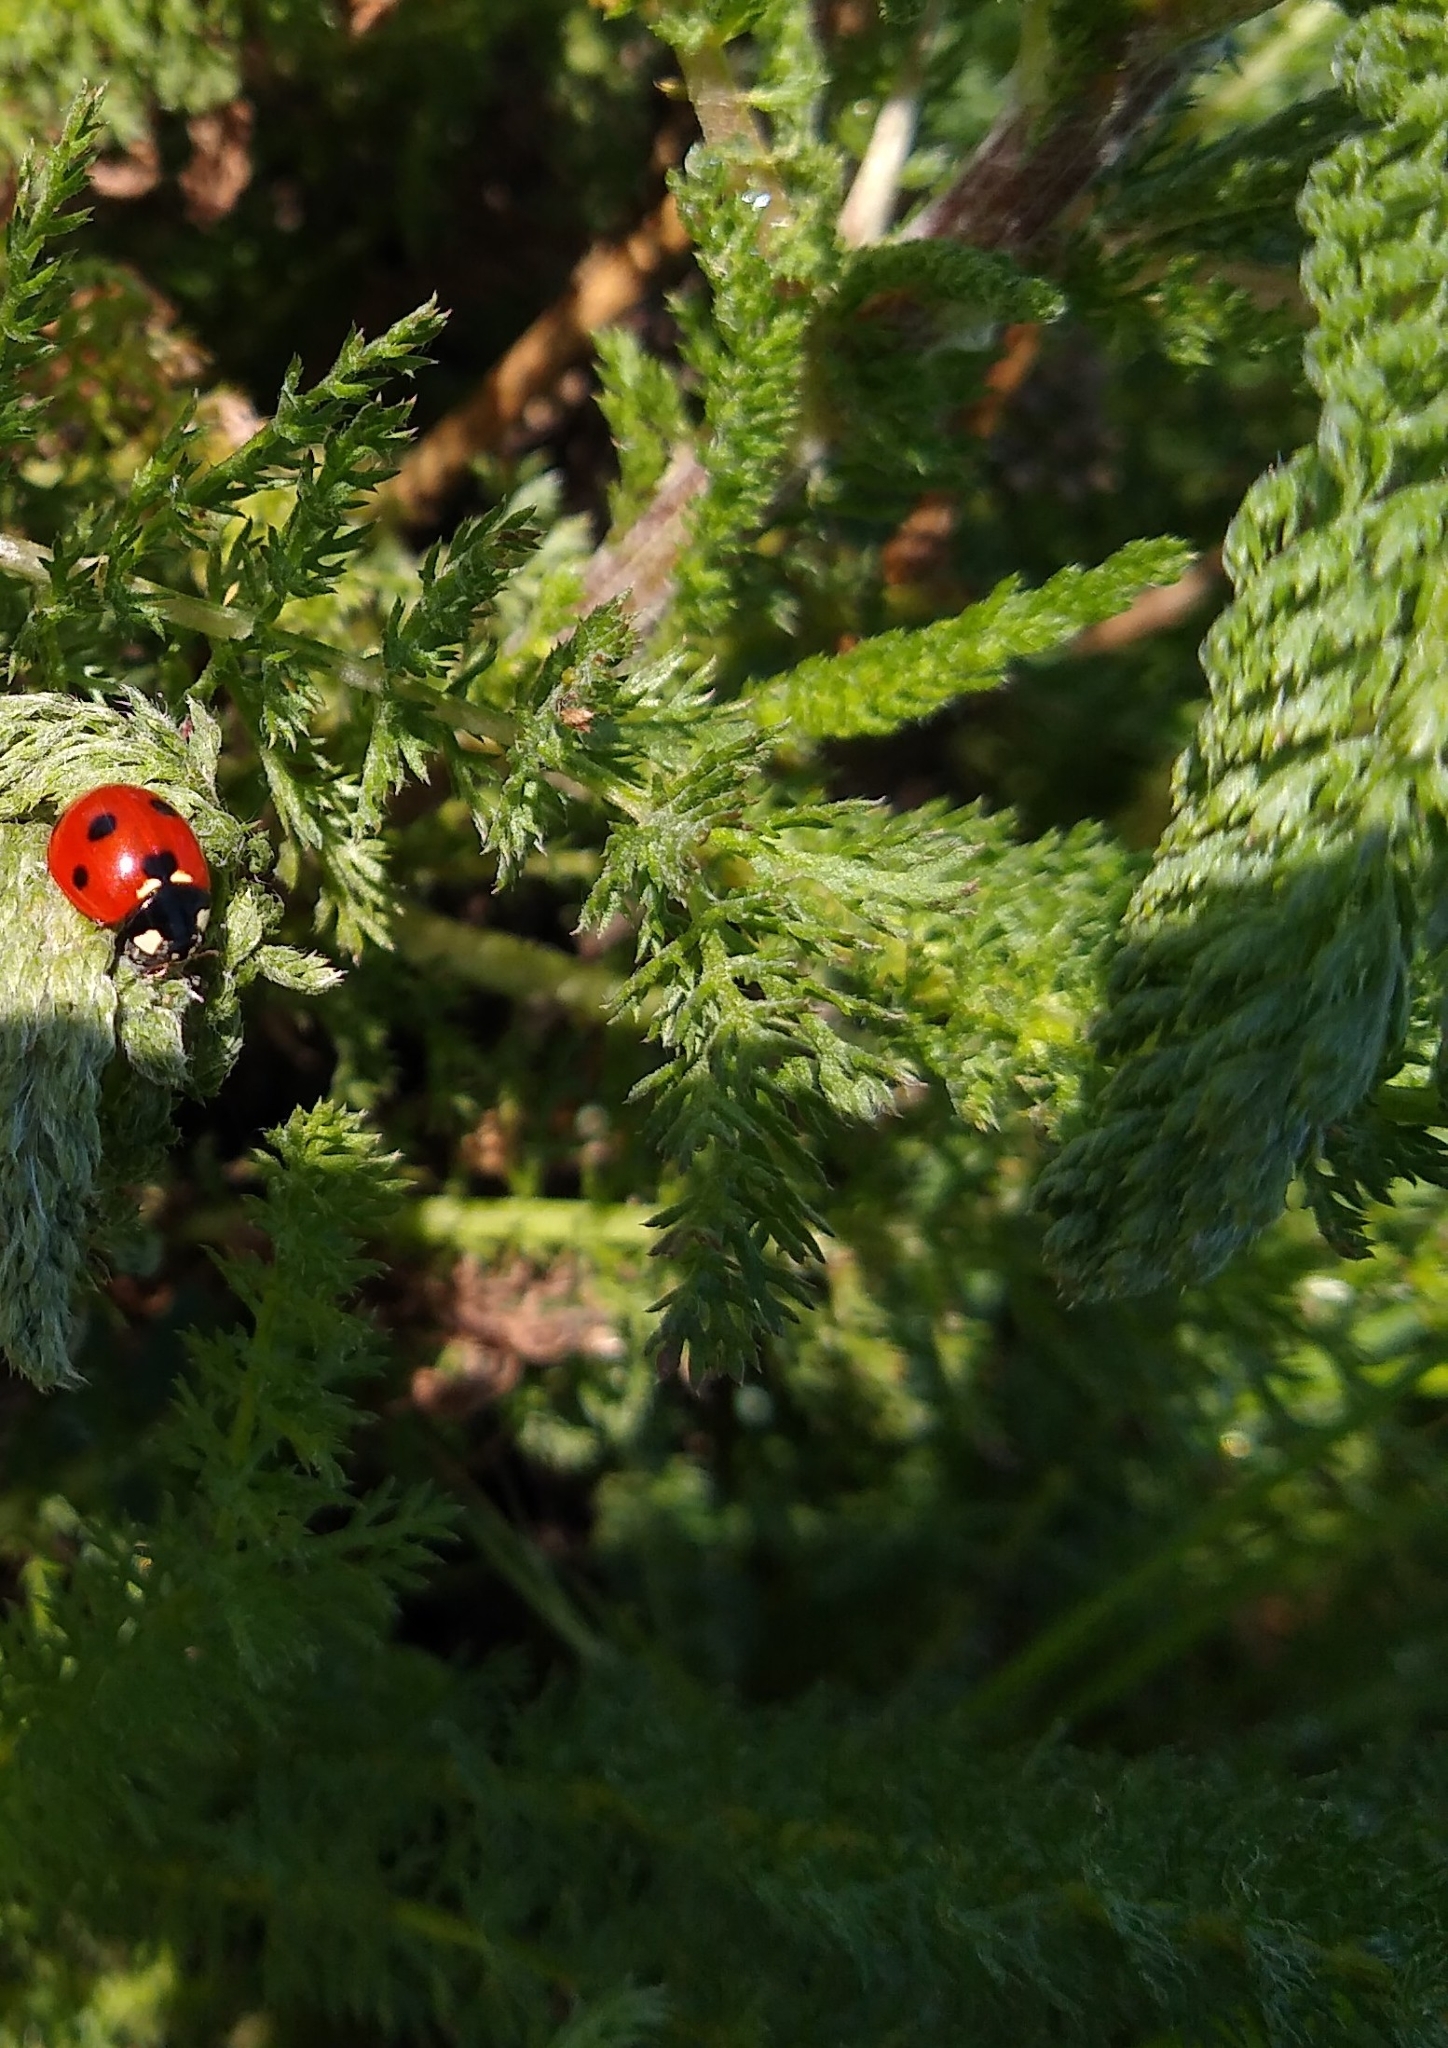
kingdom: Animalia
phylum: Arthropoda
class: Insecta
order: Coleoptera
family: Coccinellidae
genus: Coccinella
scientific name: Coccinella septempunctata
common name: Sevenspotted lady beetle
